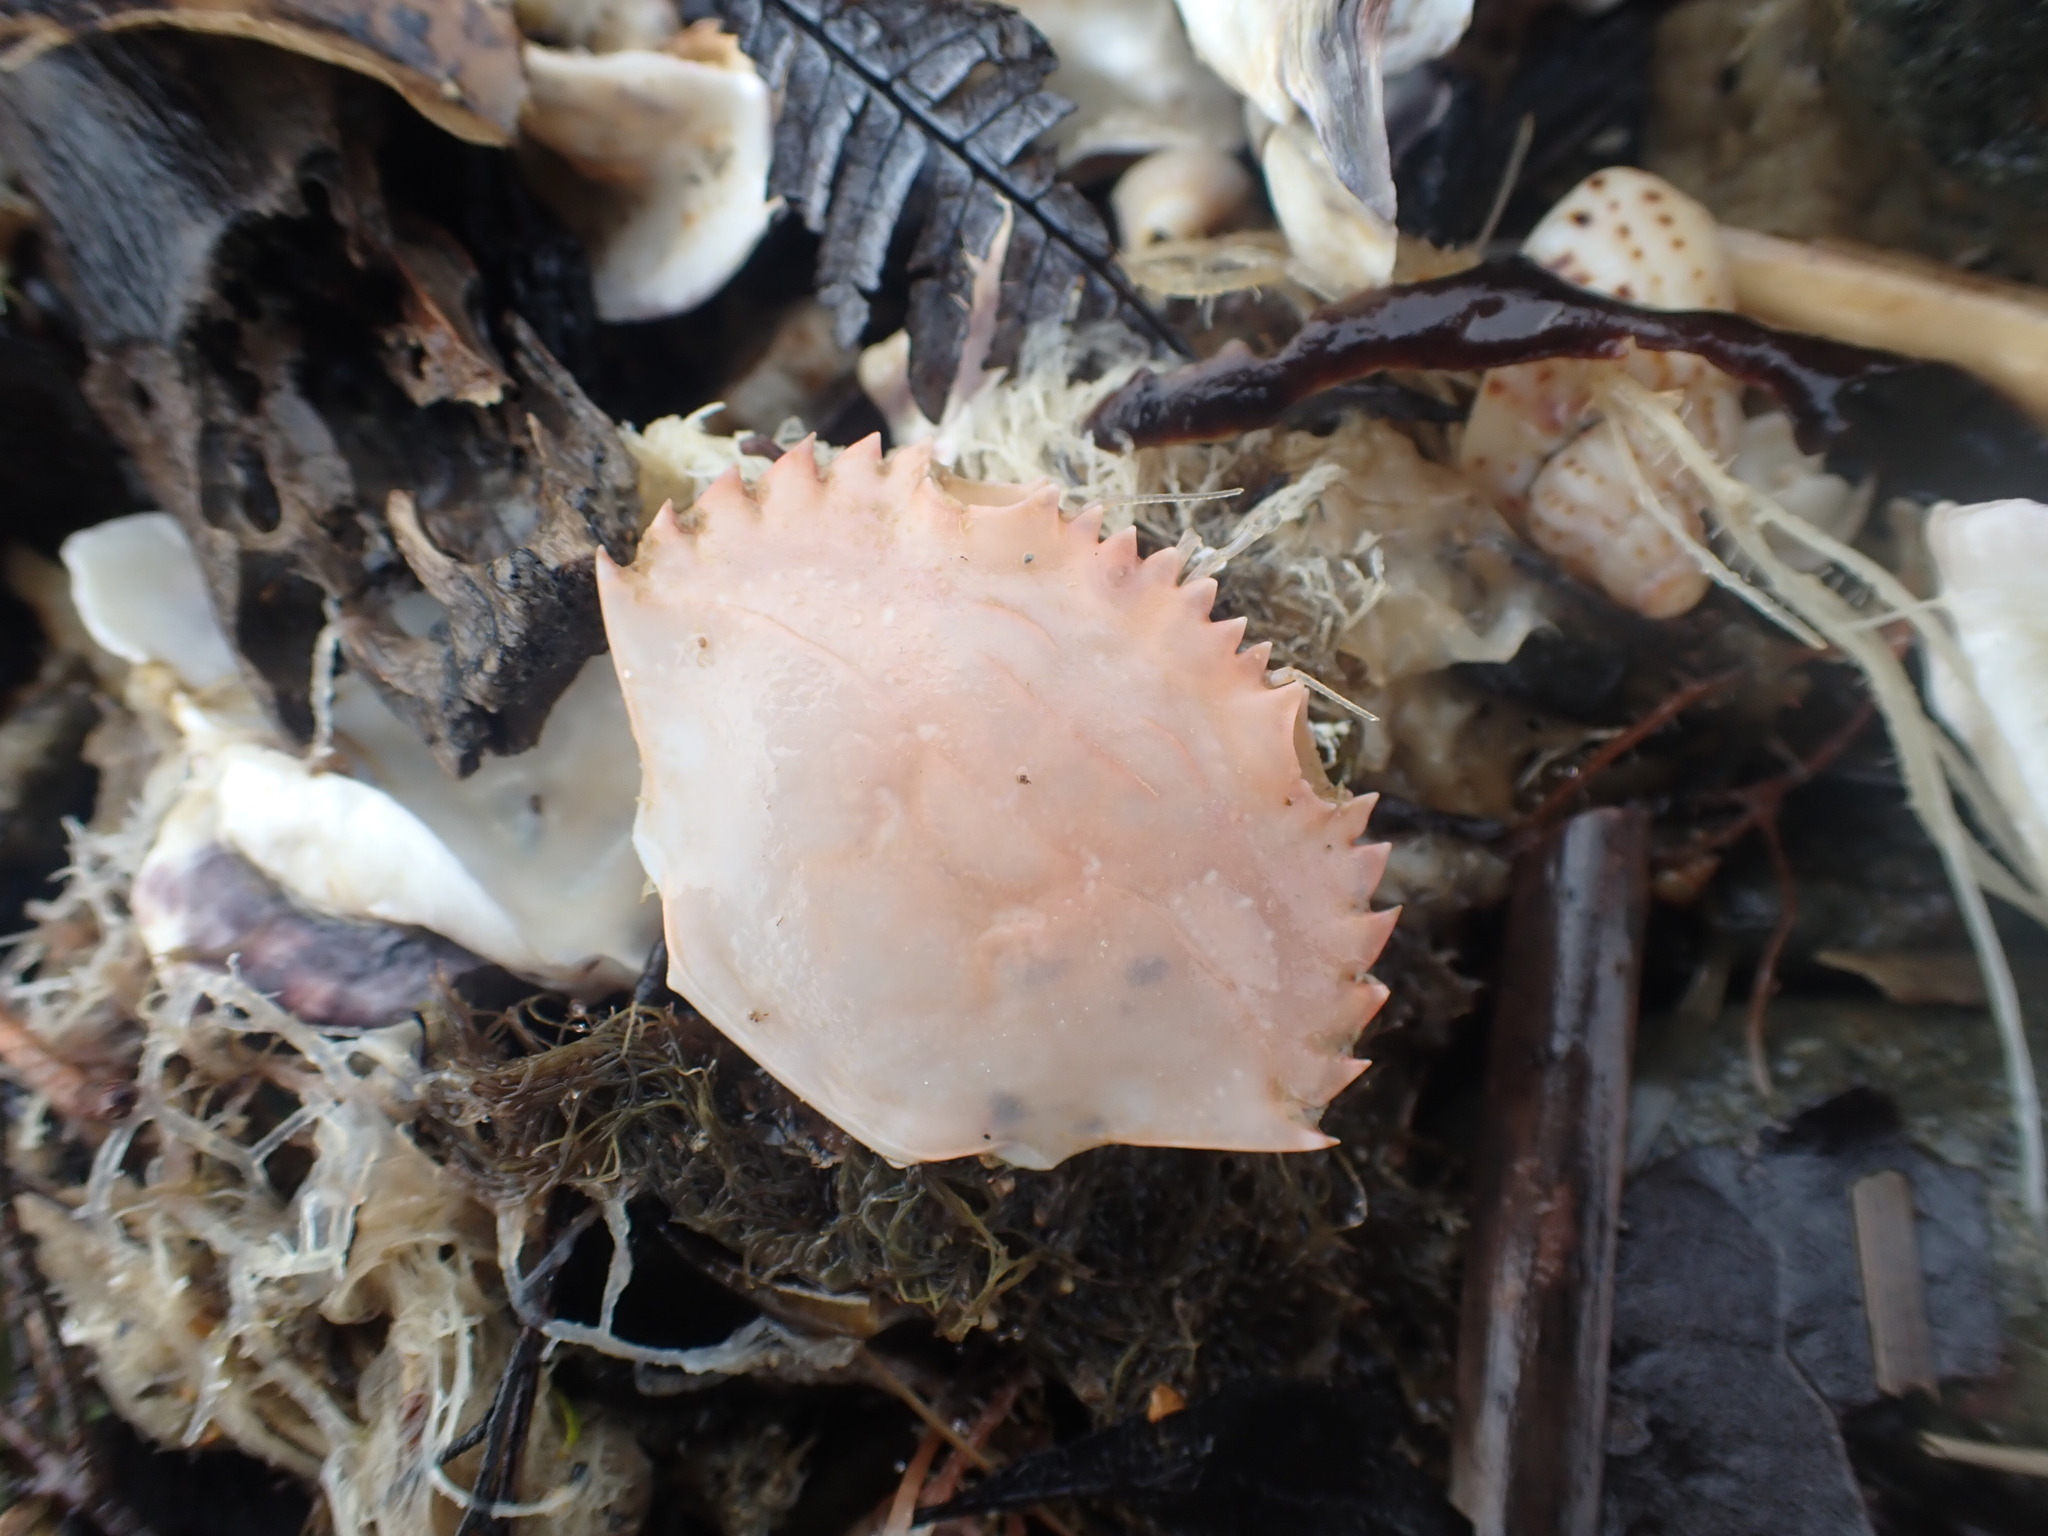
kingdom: Animalia
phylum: Arthropoda
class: Malacostraca
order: Decapoda
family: Portunidae
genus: Charybdis
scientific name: Charybdis japonica
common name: Asian paddle crab
